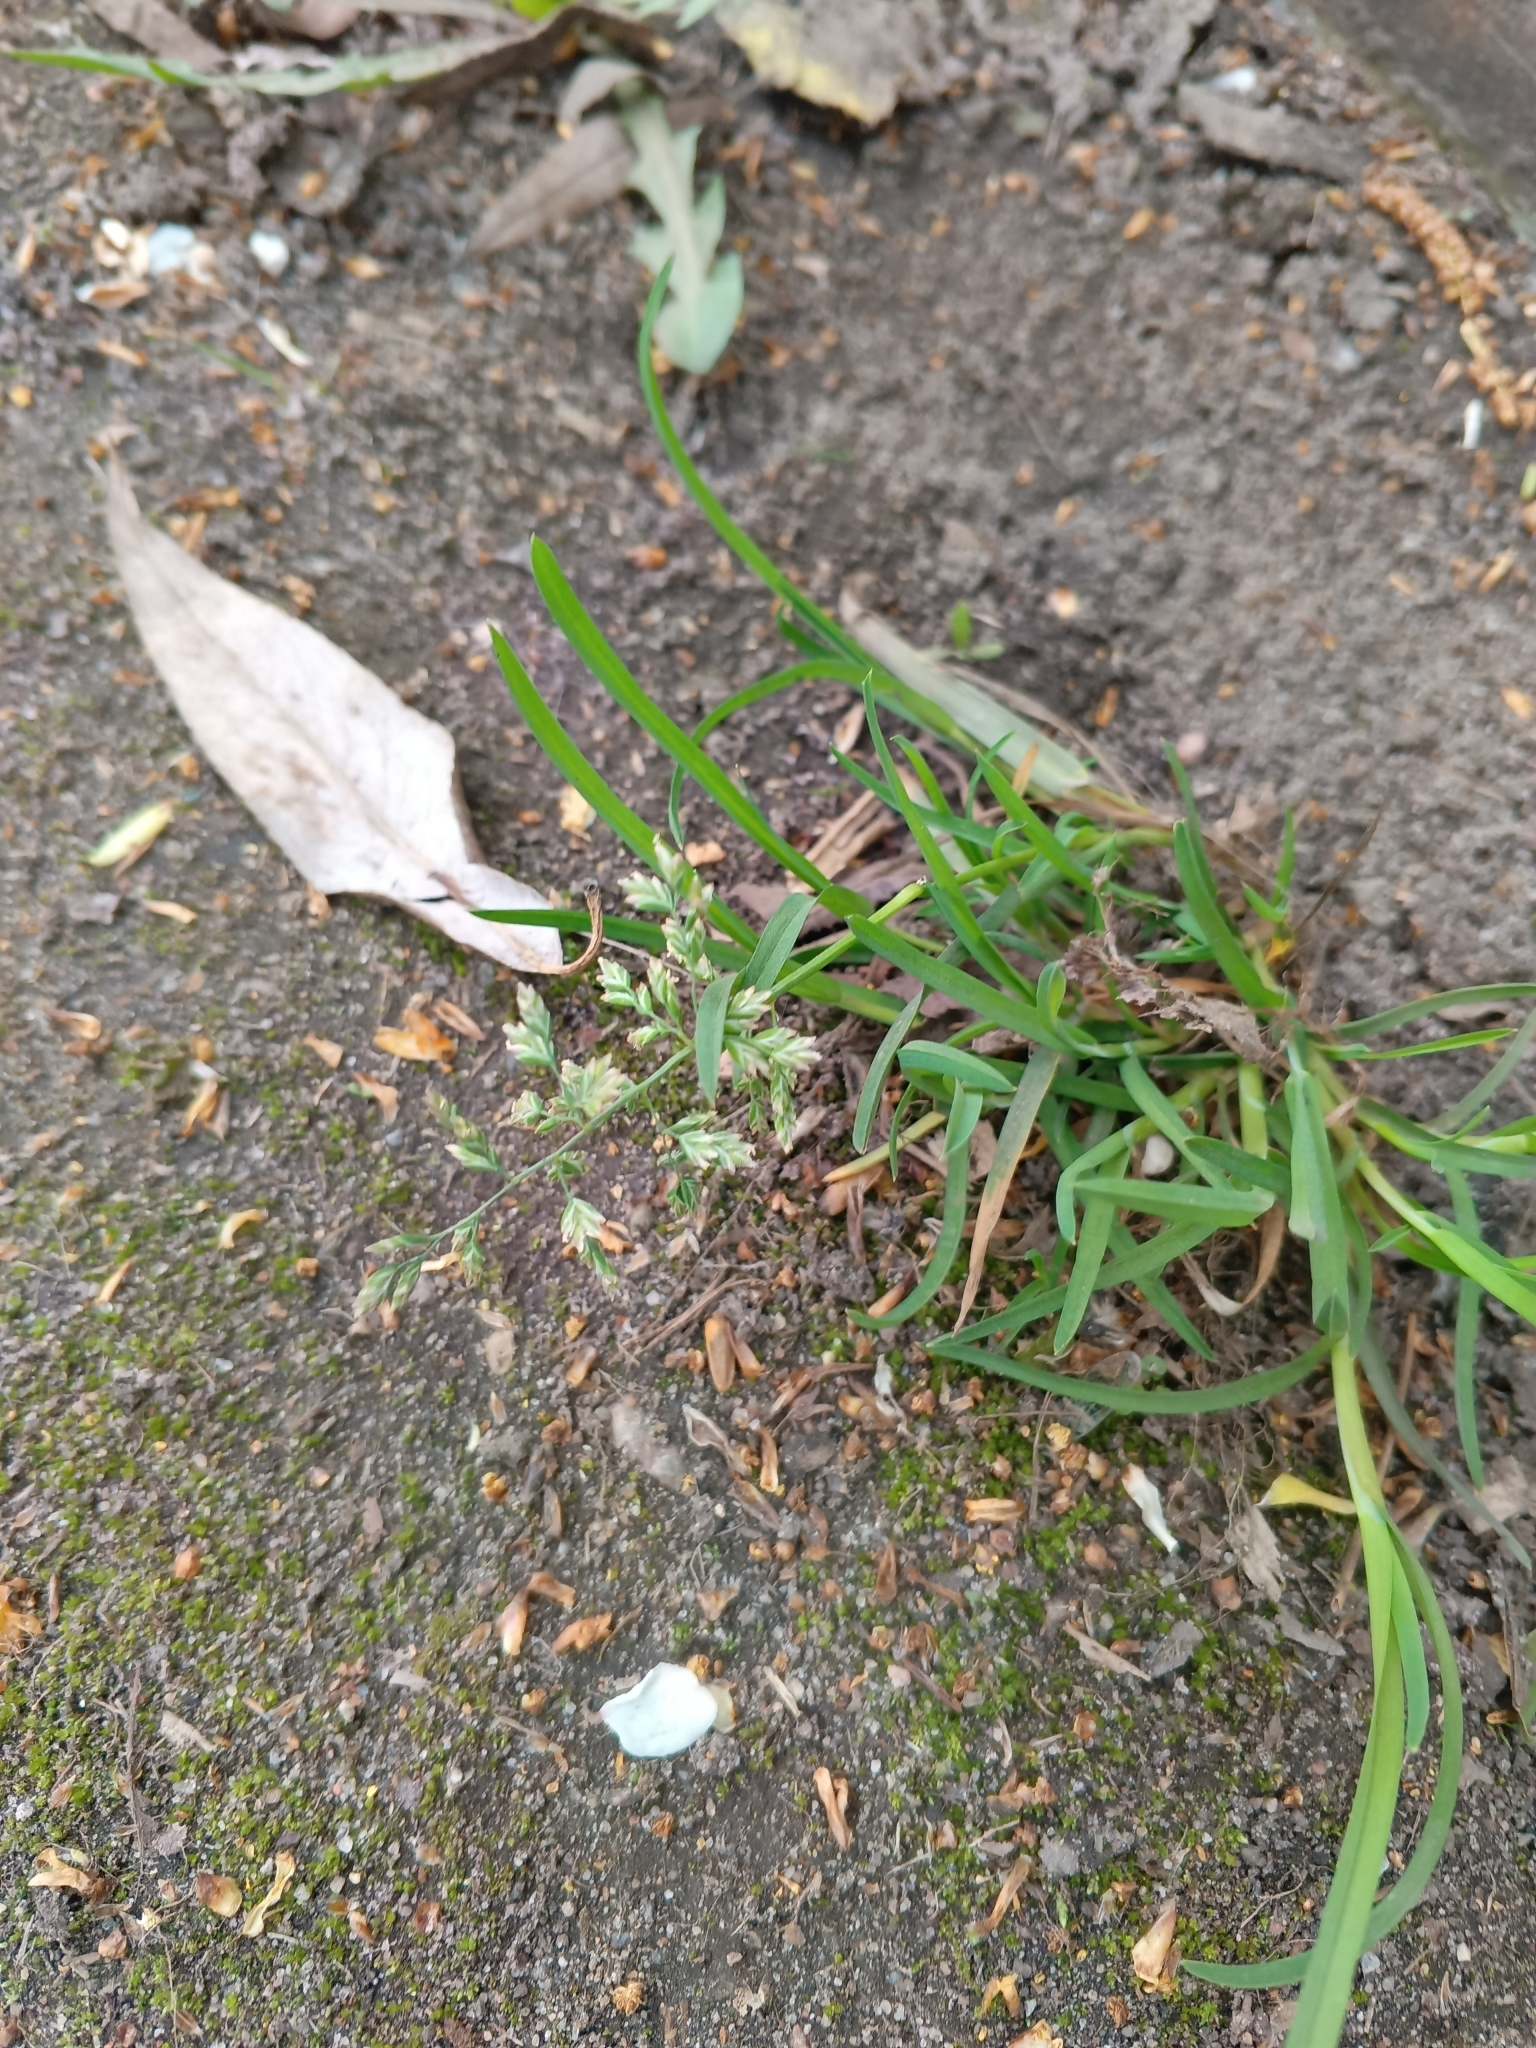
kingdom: Plantae
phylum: Tracheophyta
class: Liliopsida
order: Poales
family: Poaceae
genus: Poa
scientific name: Poa annua
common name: Annual bluegrass
